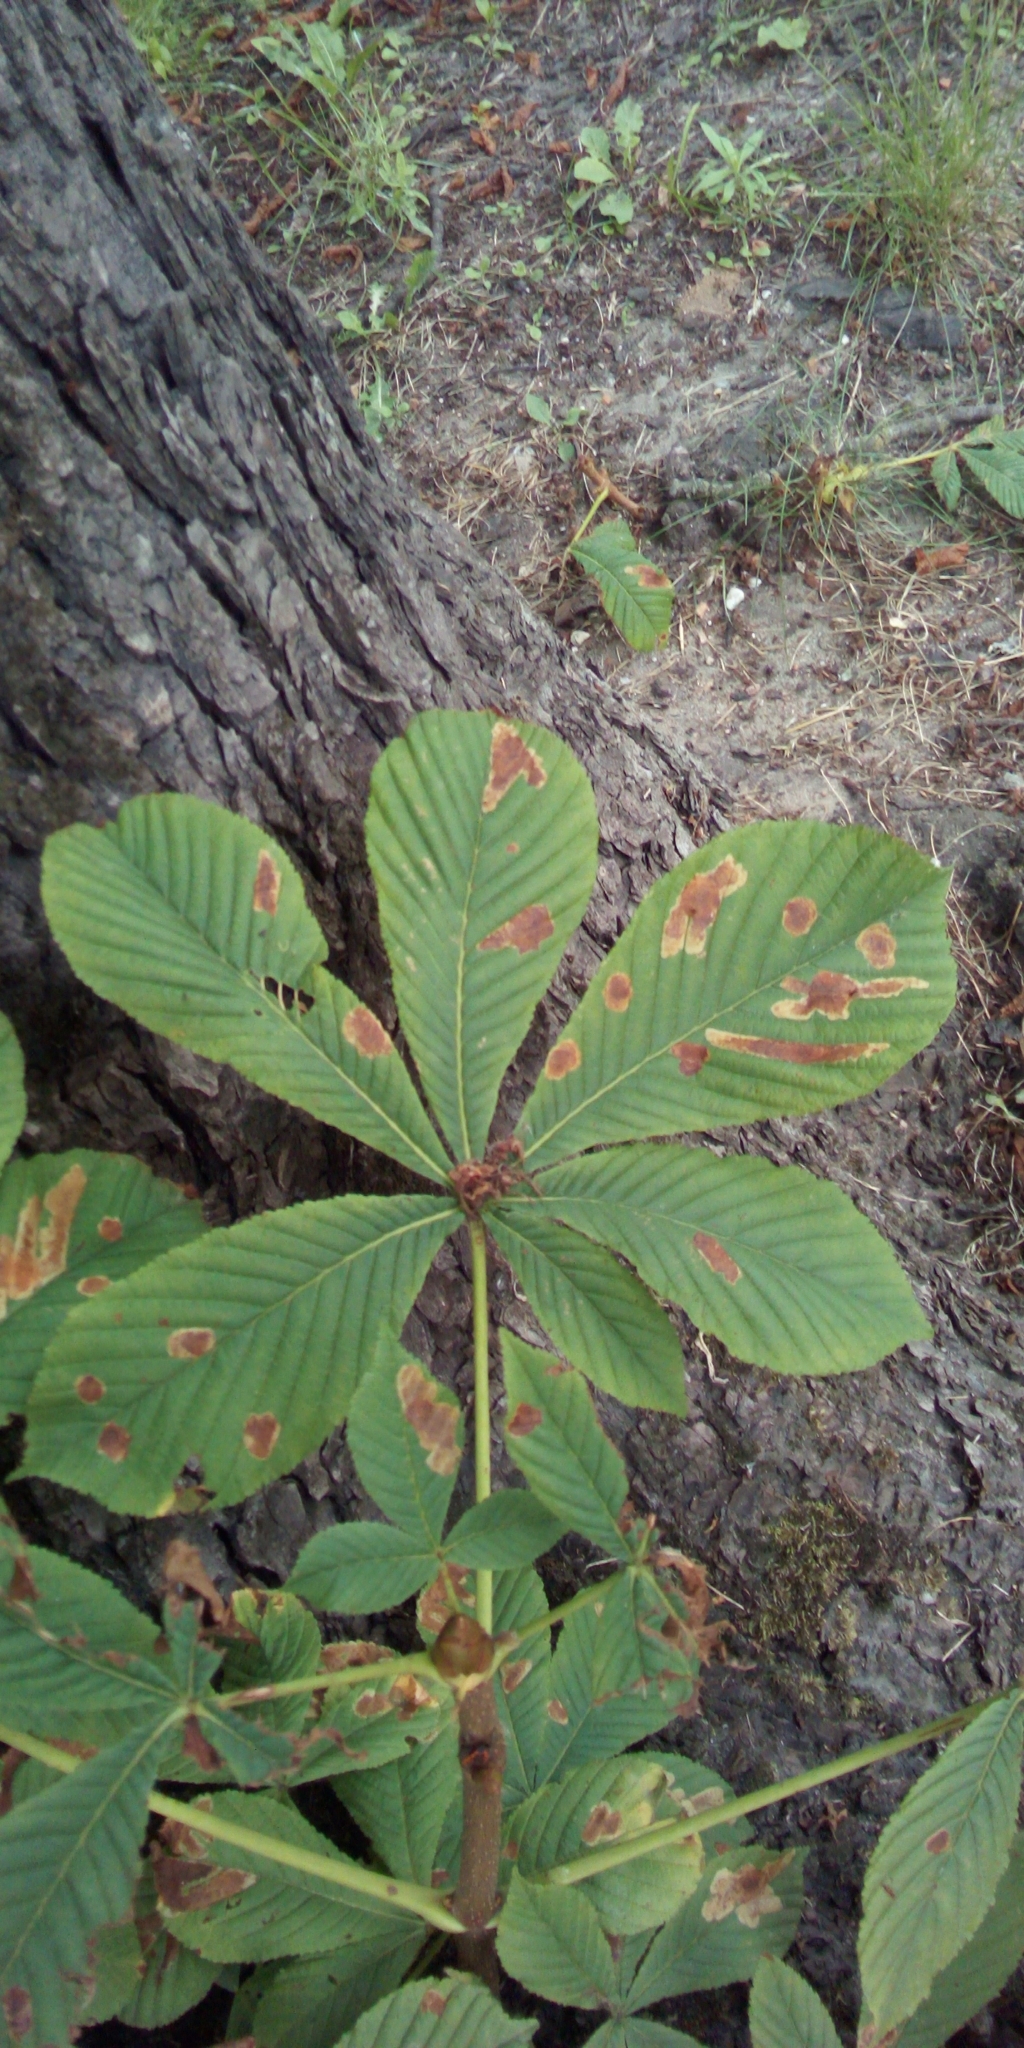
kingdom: Animalia
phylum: Arthropoda
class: Insecta
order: Lepidoptera
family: Gracillariidae
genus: Cameraria
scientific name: Cameraria ohridella
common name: Horse-chestnut leaf-miner
